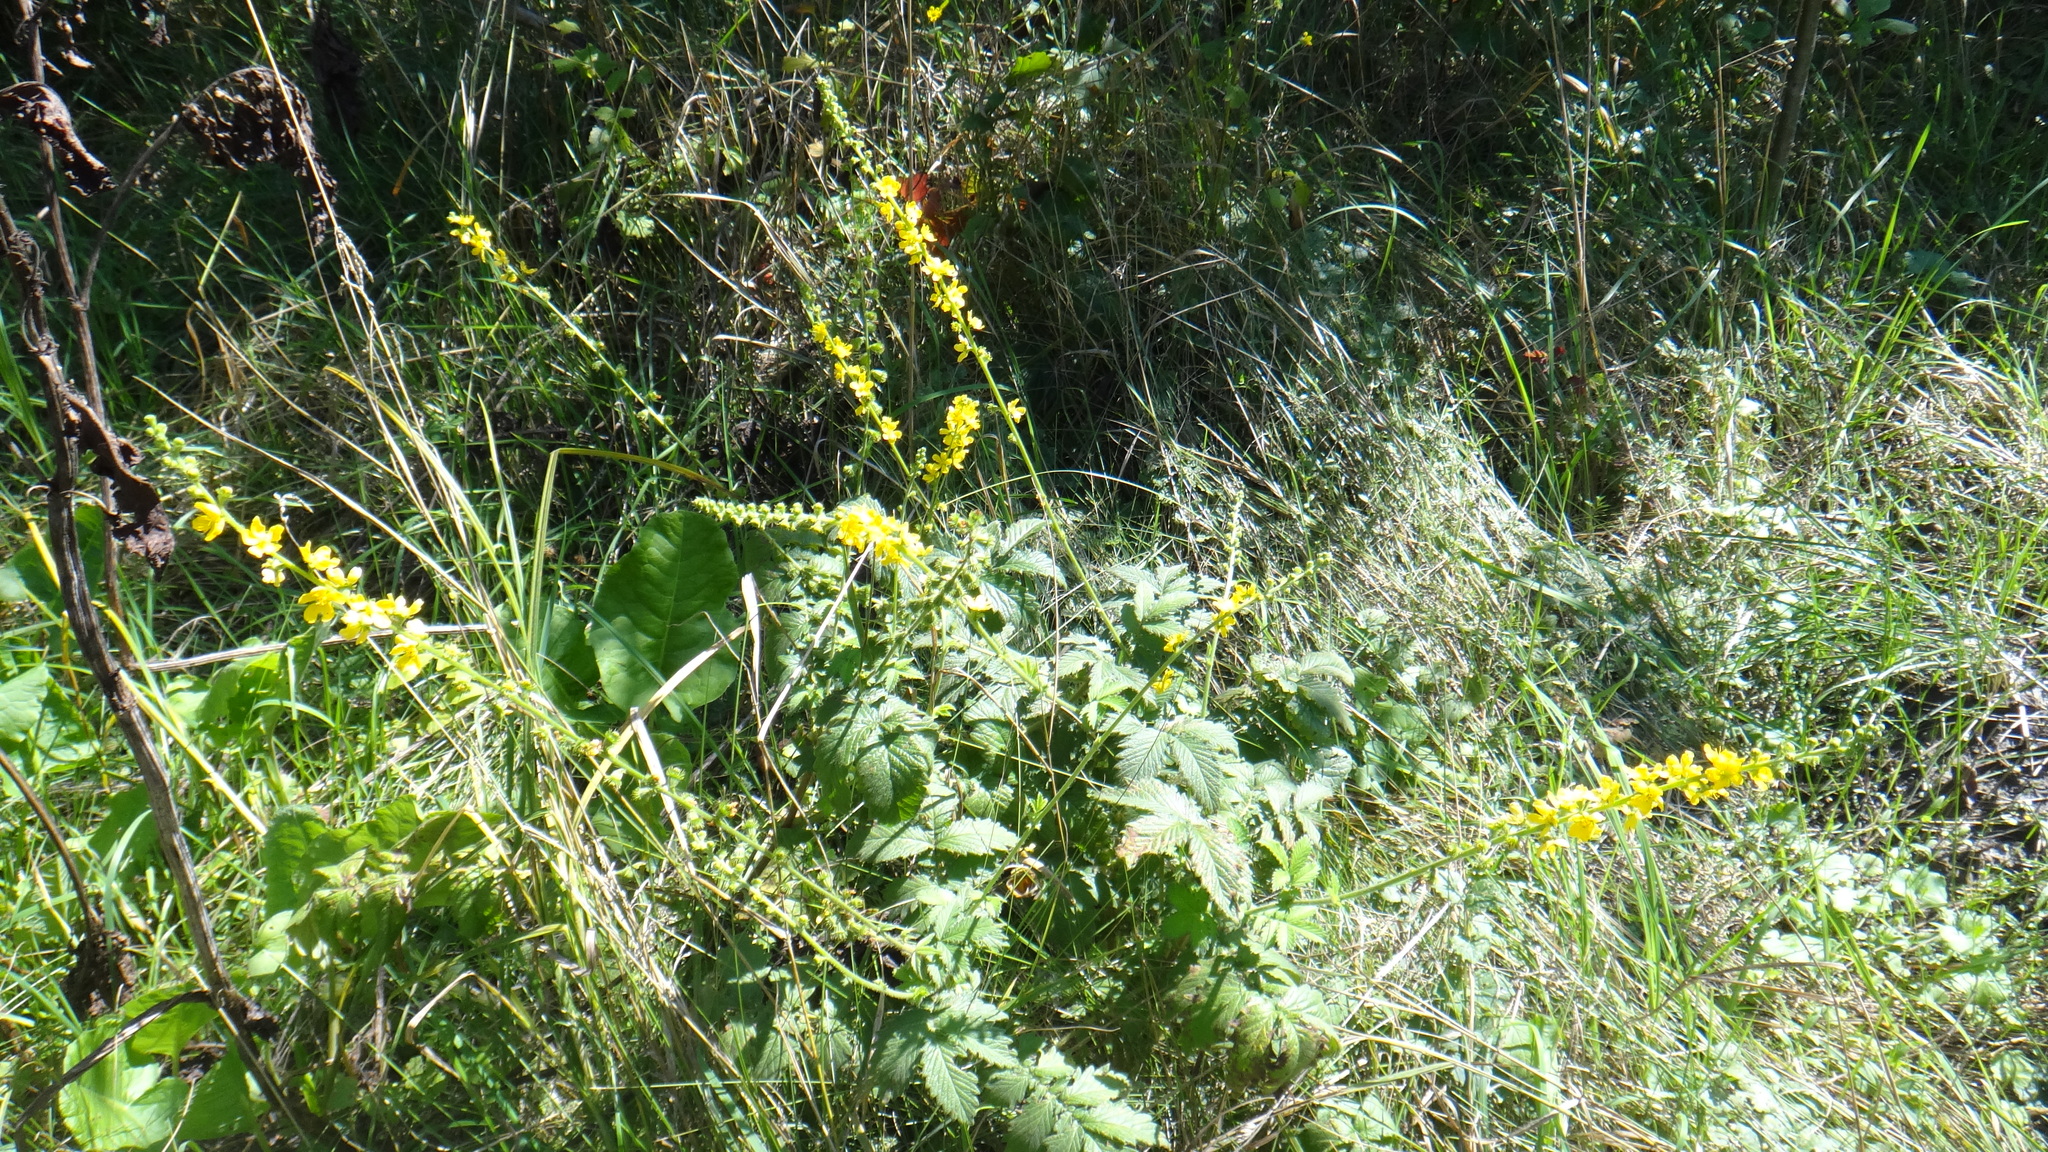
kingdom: Plantae
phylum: Tracheophyta
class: Magnoliopsida
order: Rosales
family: Rosaceae
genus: Agrimonia
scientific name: Agrimonia eupatoria
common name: Agrimony
